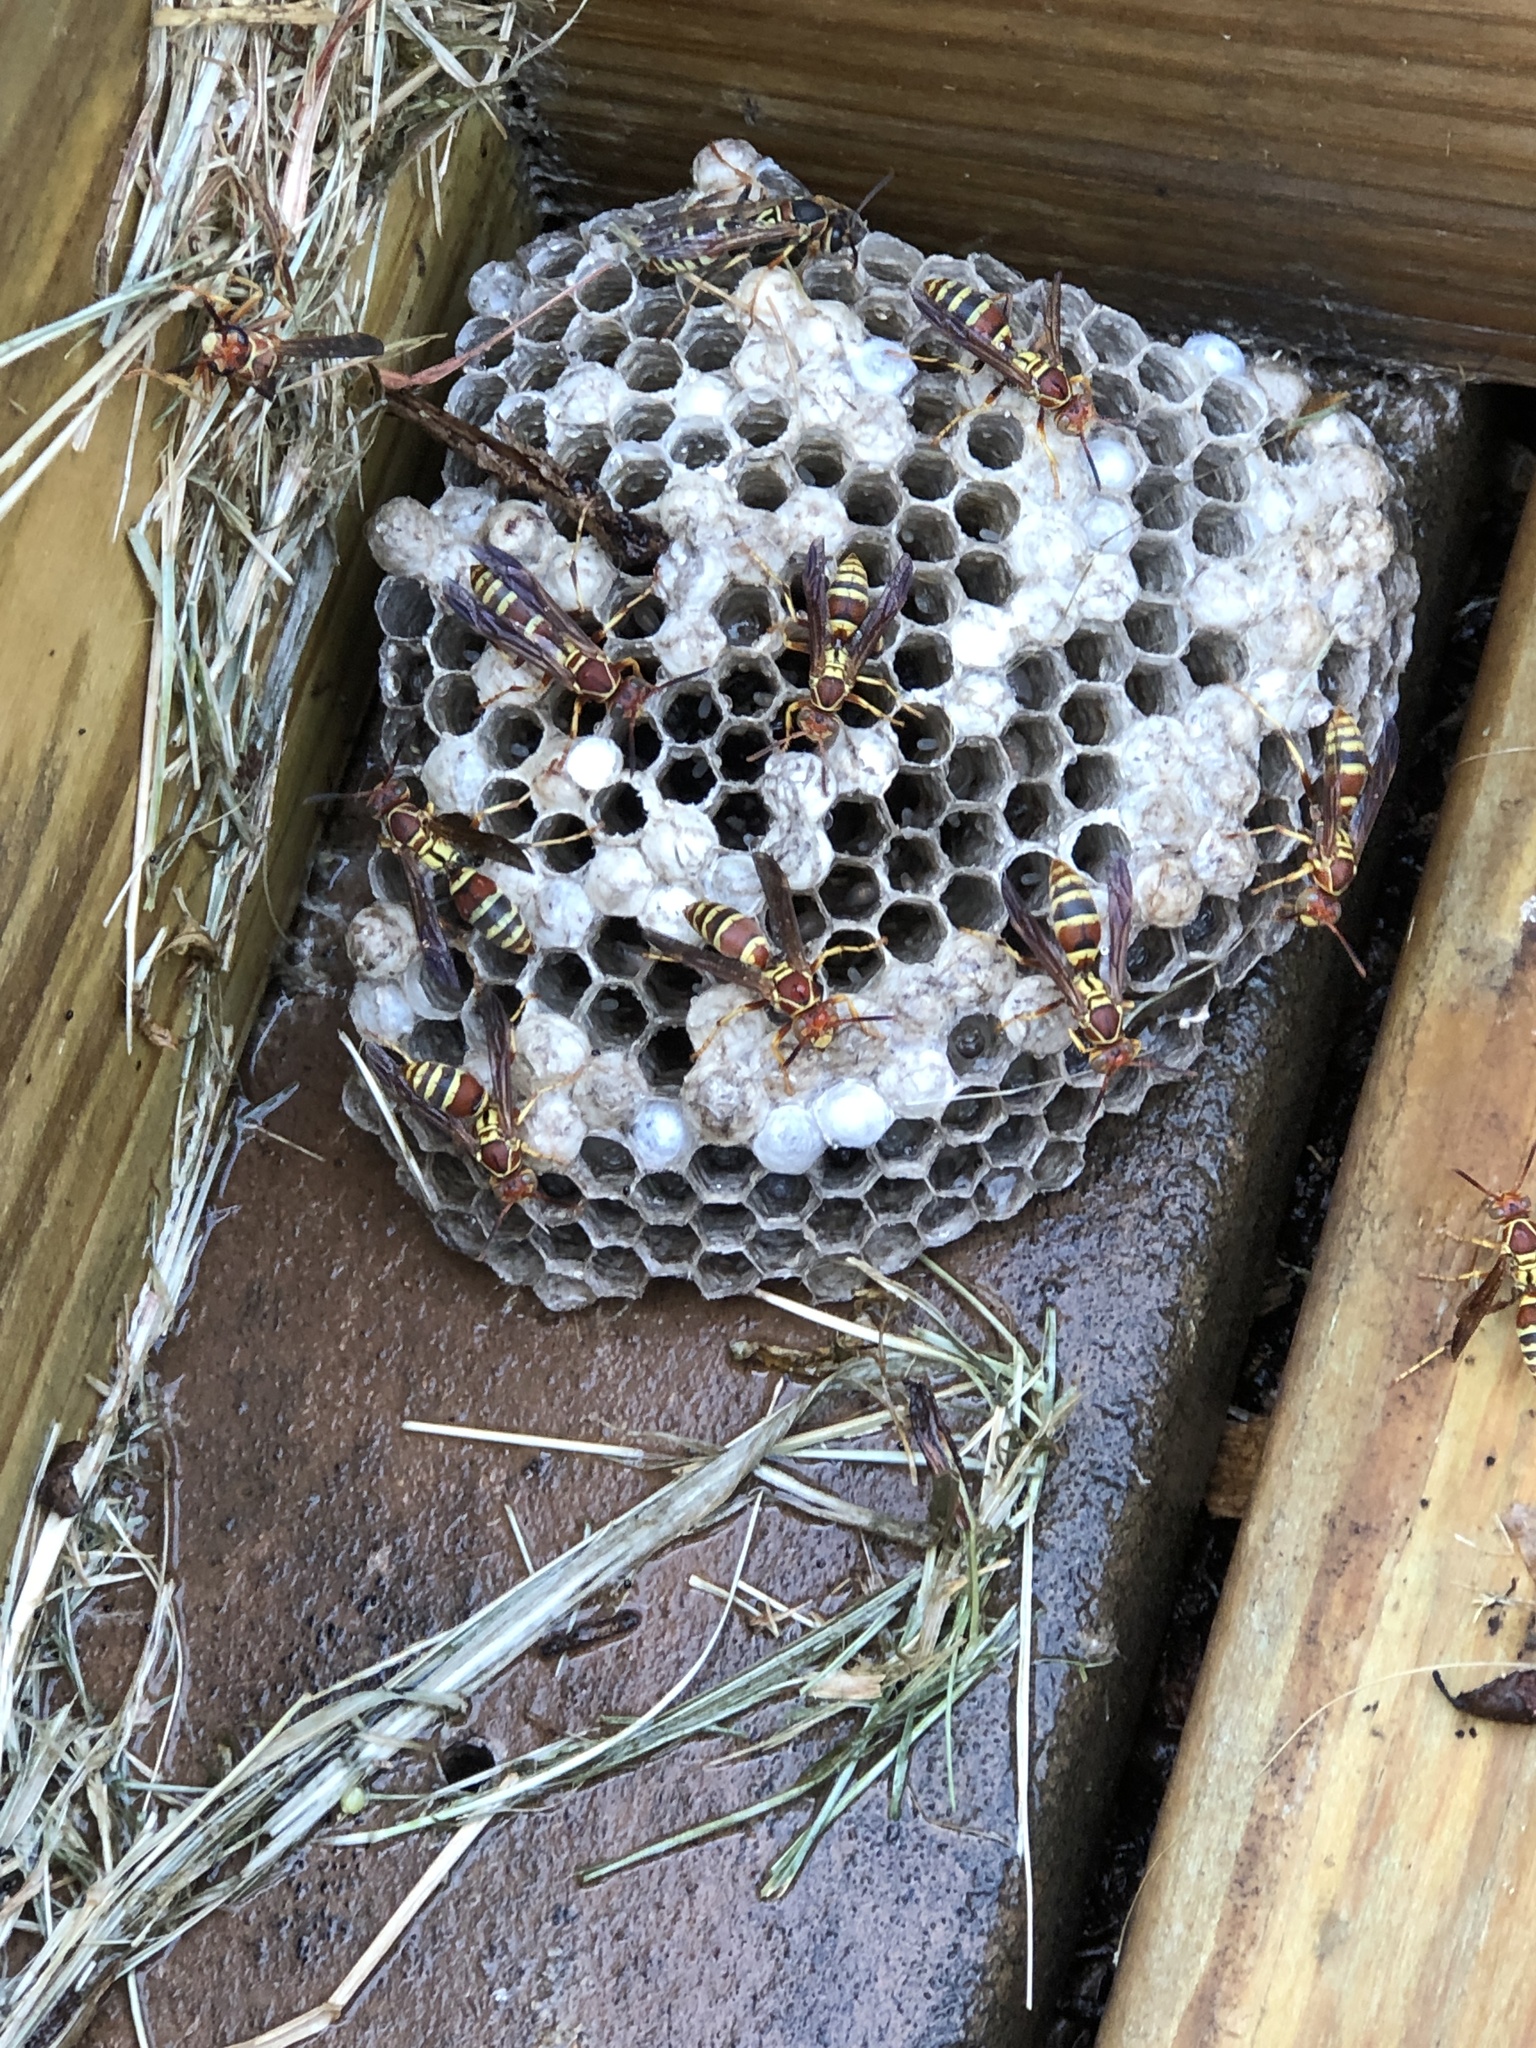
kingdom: Animalia
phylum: Arthropoda
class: Insecta
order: Hymenoptera
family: Eumenidae
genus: Polistes
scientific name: Polistes dorsalis
